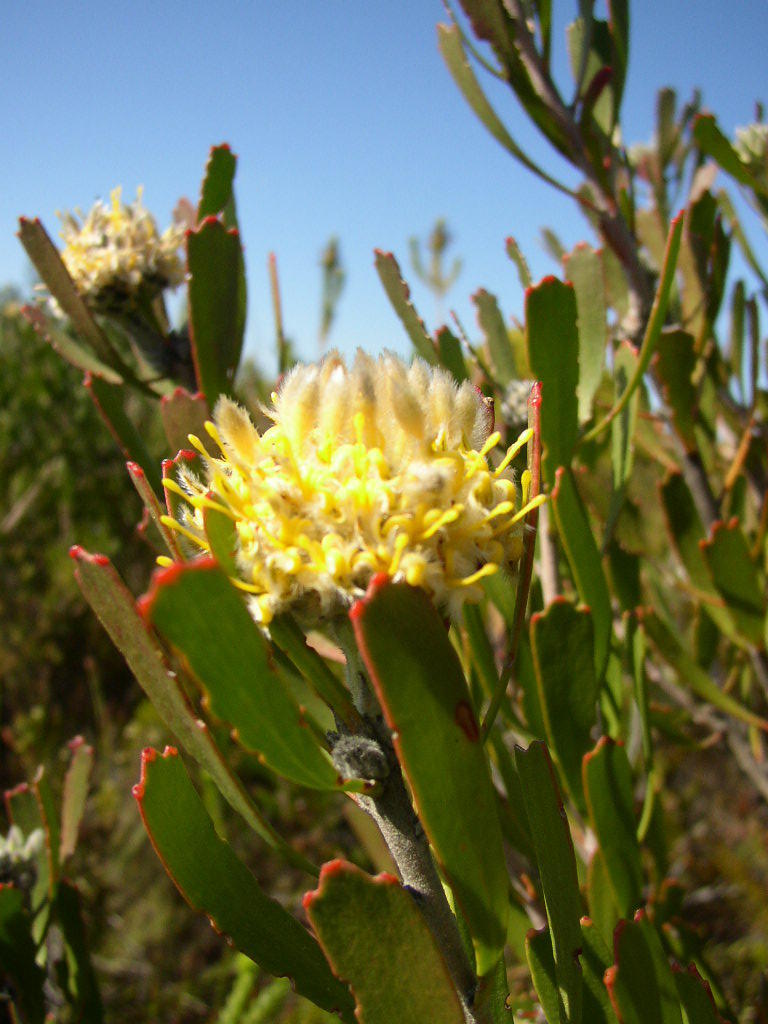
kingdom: Plantae
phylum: Tracheophyta
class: Magnoliopsida
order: Proteales
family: Proteaceae
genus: Leucospermum
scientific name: Leucospermum truncatum
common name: Limestone pincushion
